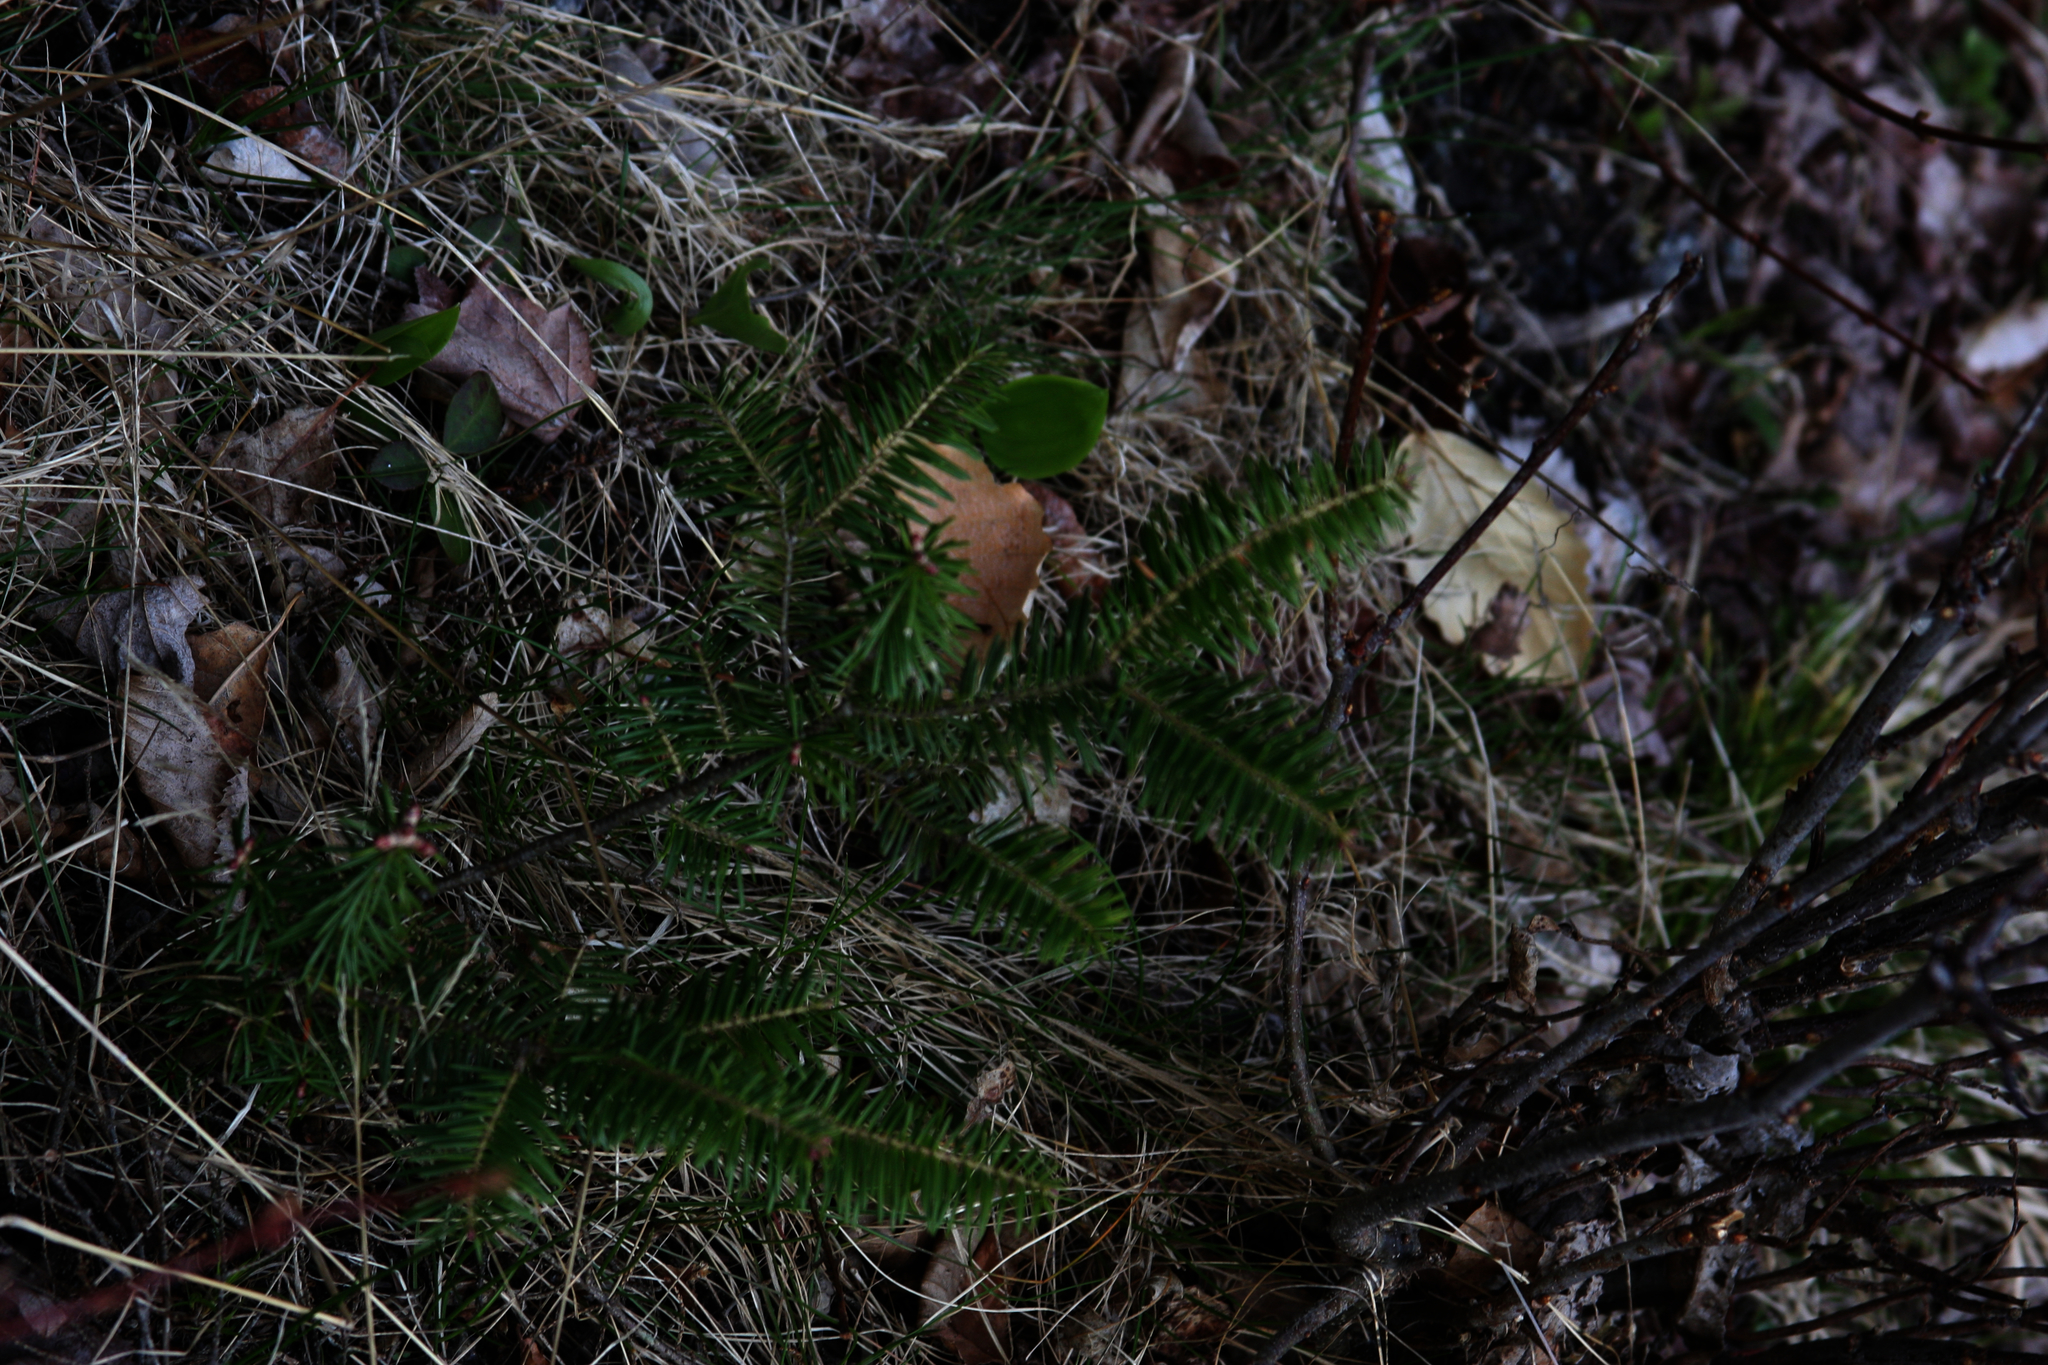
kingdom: Plantae
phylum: Tracheophyta
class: Pinopsida
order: Pinales
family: Pinaceae
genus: Abies
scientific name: Abies balsamea
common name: Balsam fir
